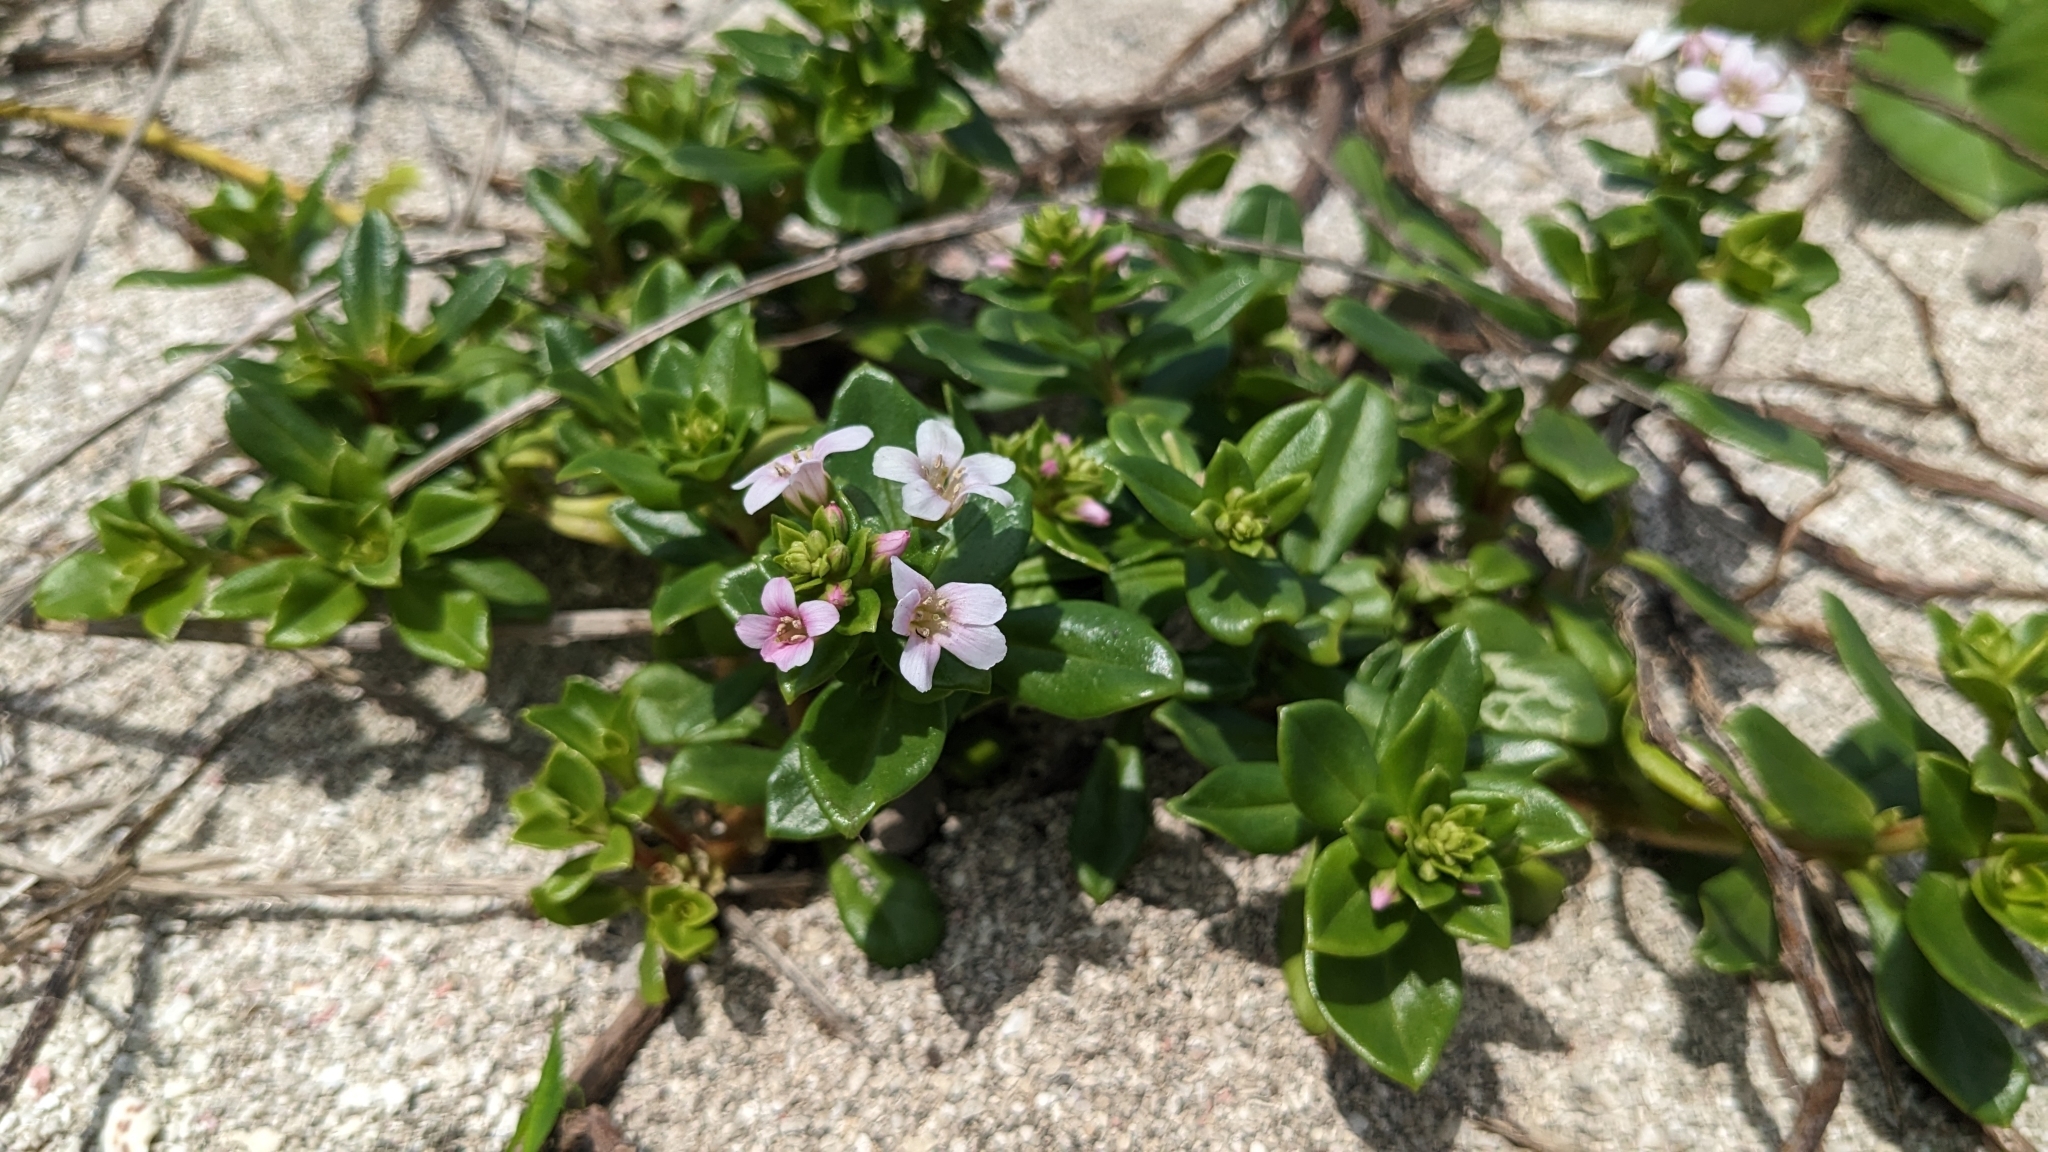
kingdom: Plantae
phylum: Tracheophyta
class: Magnoliopsida
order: Ericales
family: Primulaceae
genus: Lysimachia
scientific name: Lysimachia mauritiana
